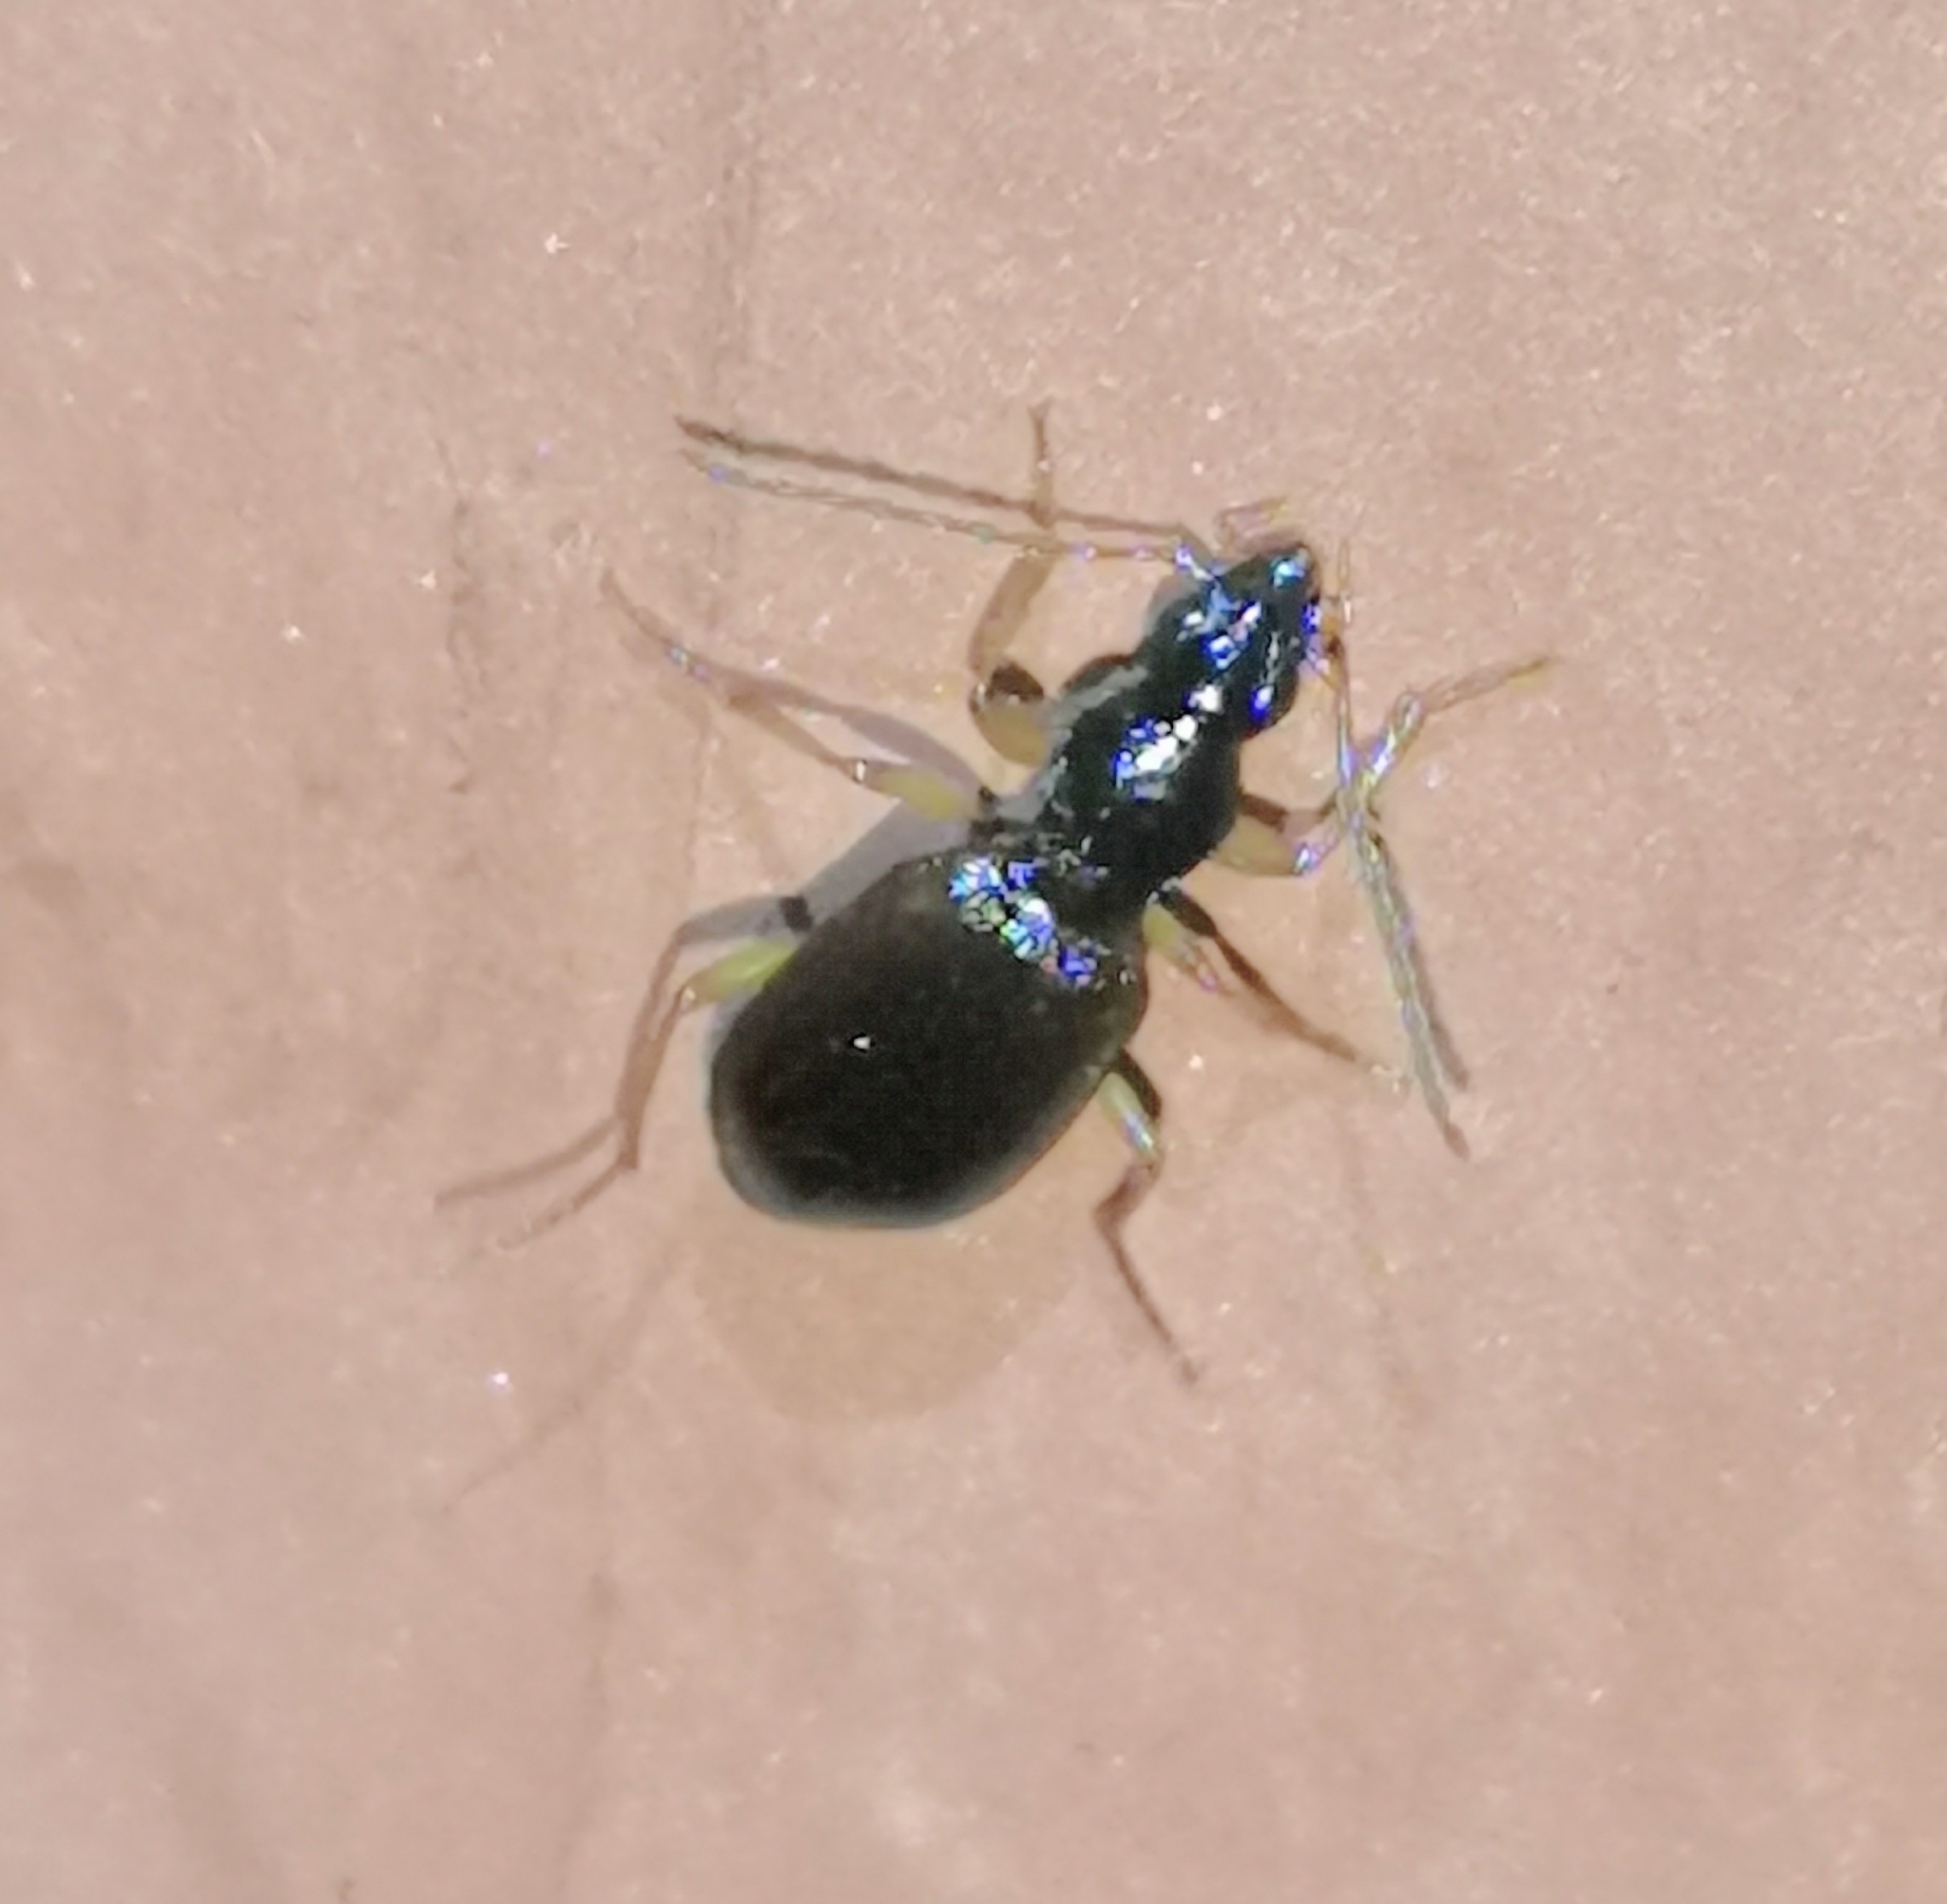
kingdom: Animalia
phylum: Arthropoda
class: Insecta
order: Coleoptera
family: Carabidae
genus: Oxypselaphus
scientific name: Oxypselaphus obscurus
